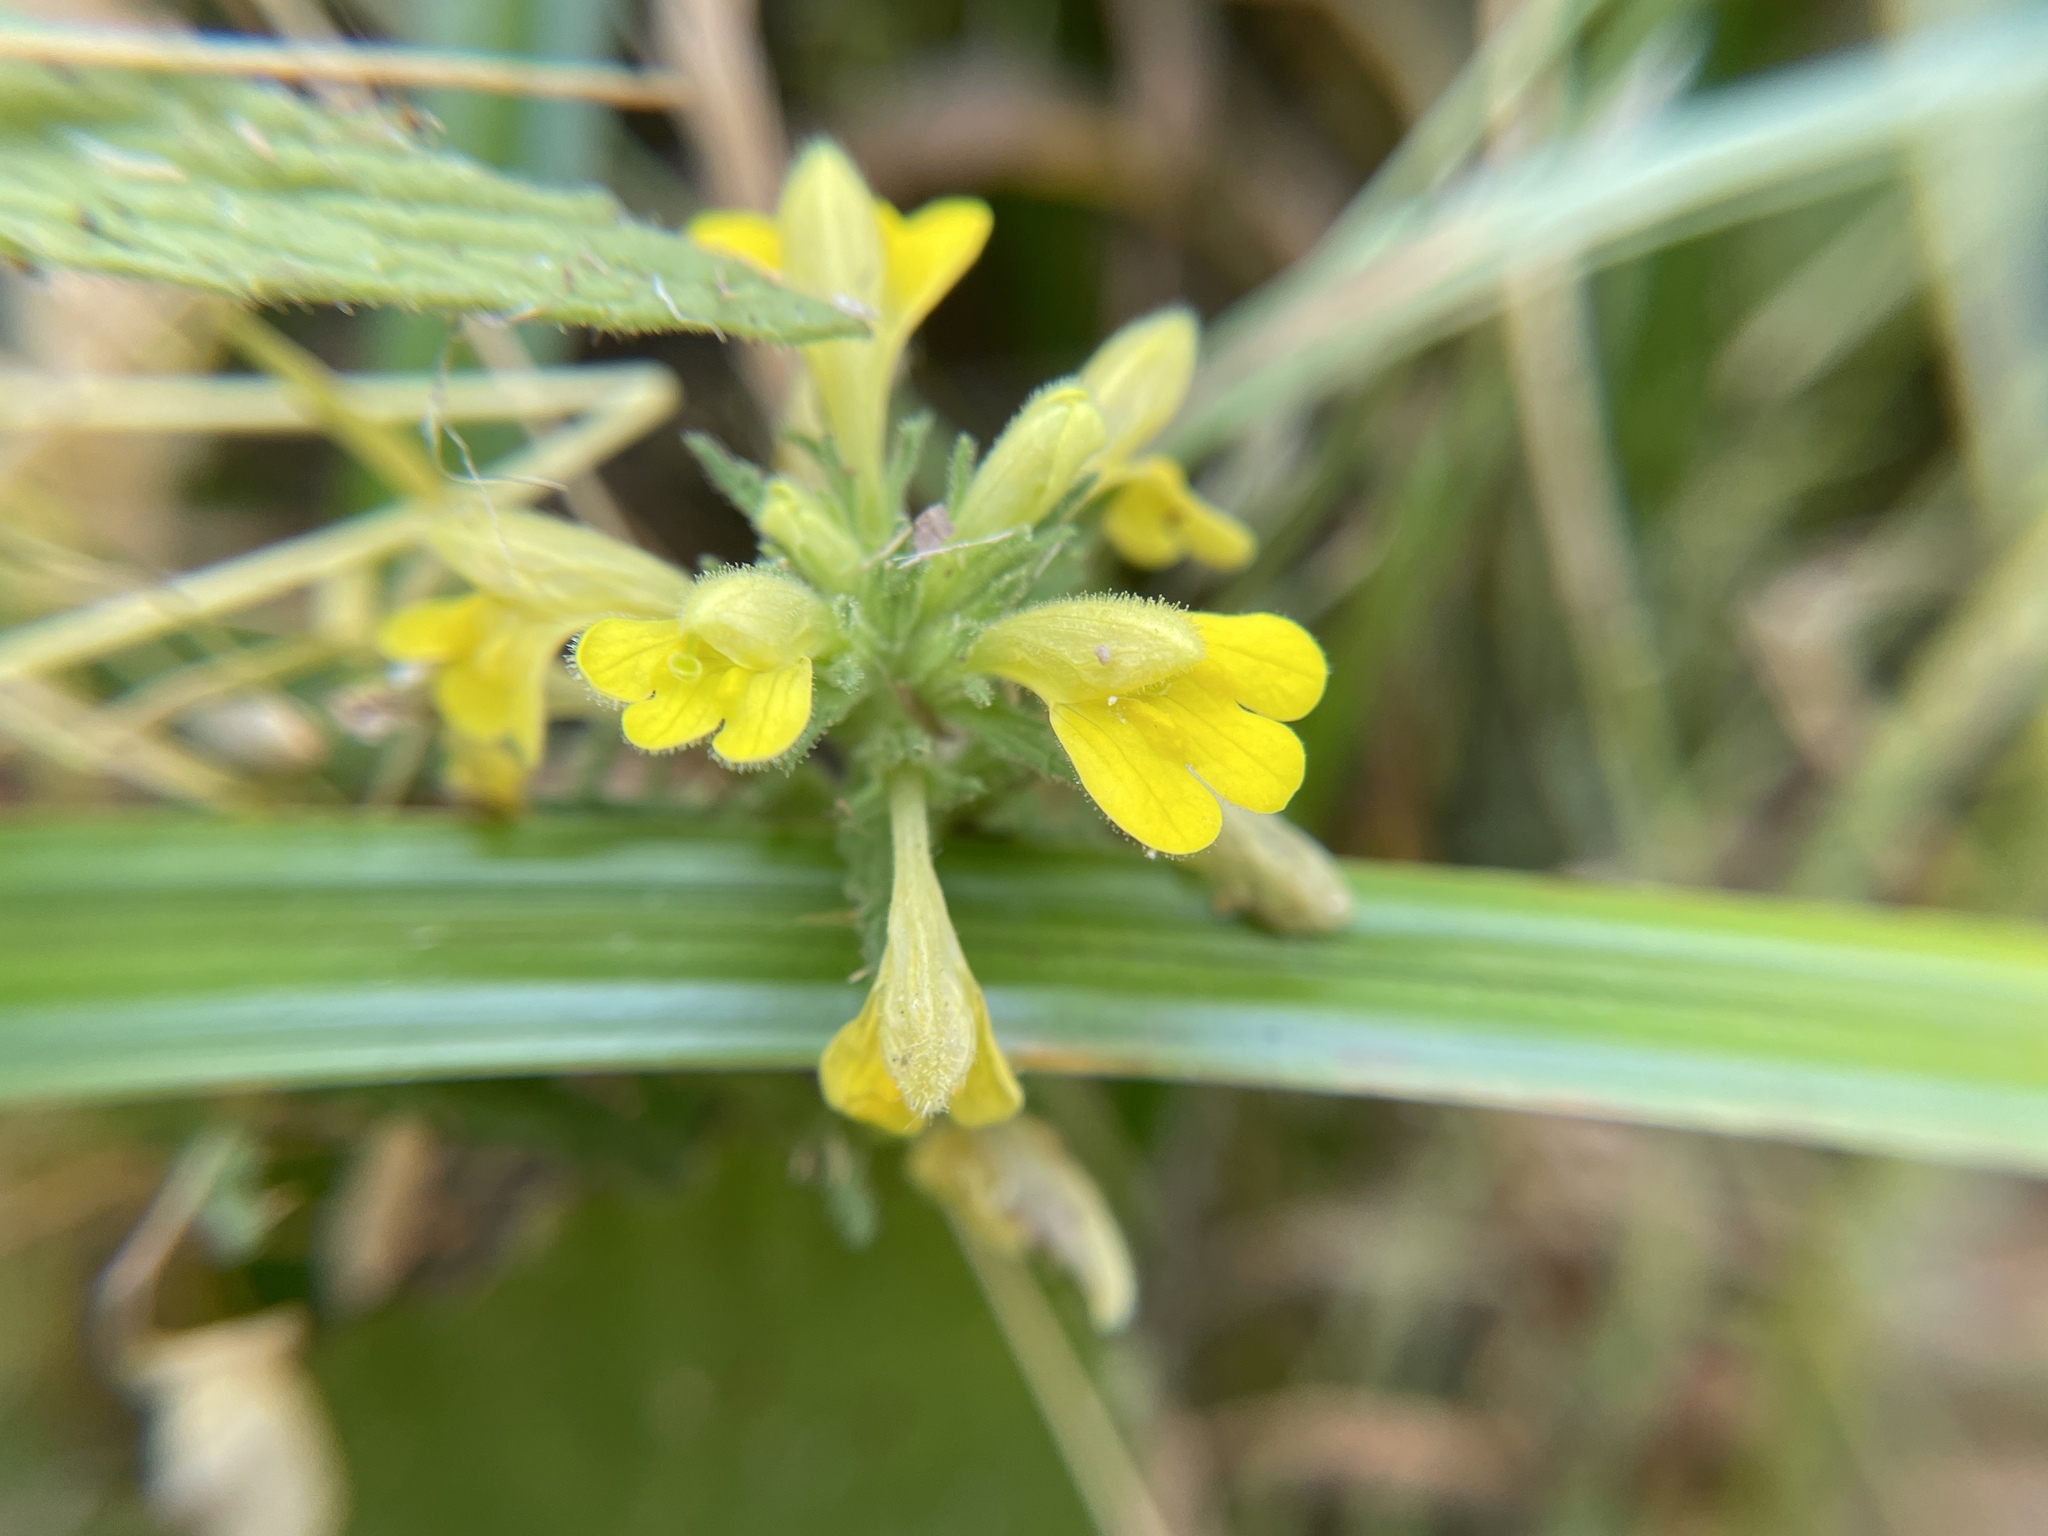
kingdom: Plantae
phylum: Tracheophyta
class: Magnoliopsida
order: Lamiales
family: Orobanchaceae
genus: Bellardia
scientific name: Bellardia viscosa
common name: Sticky parentucellia
